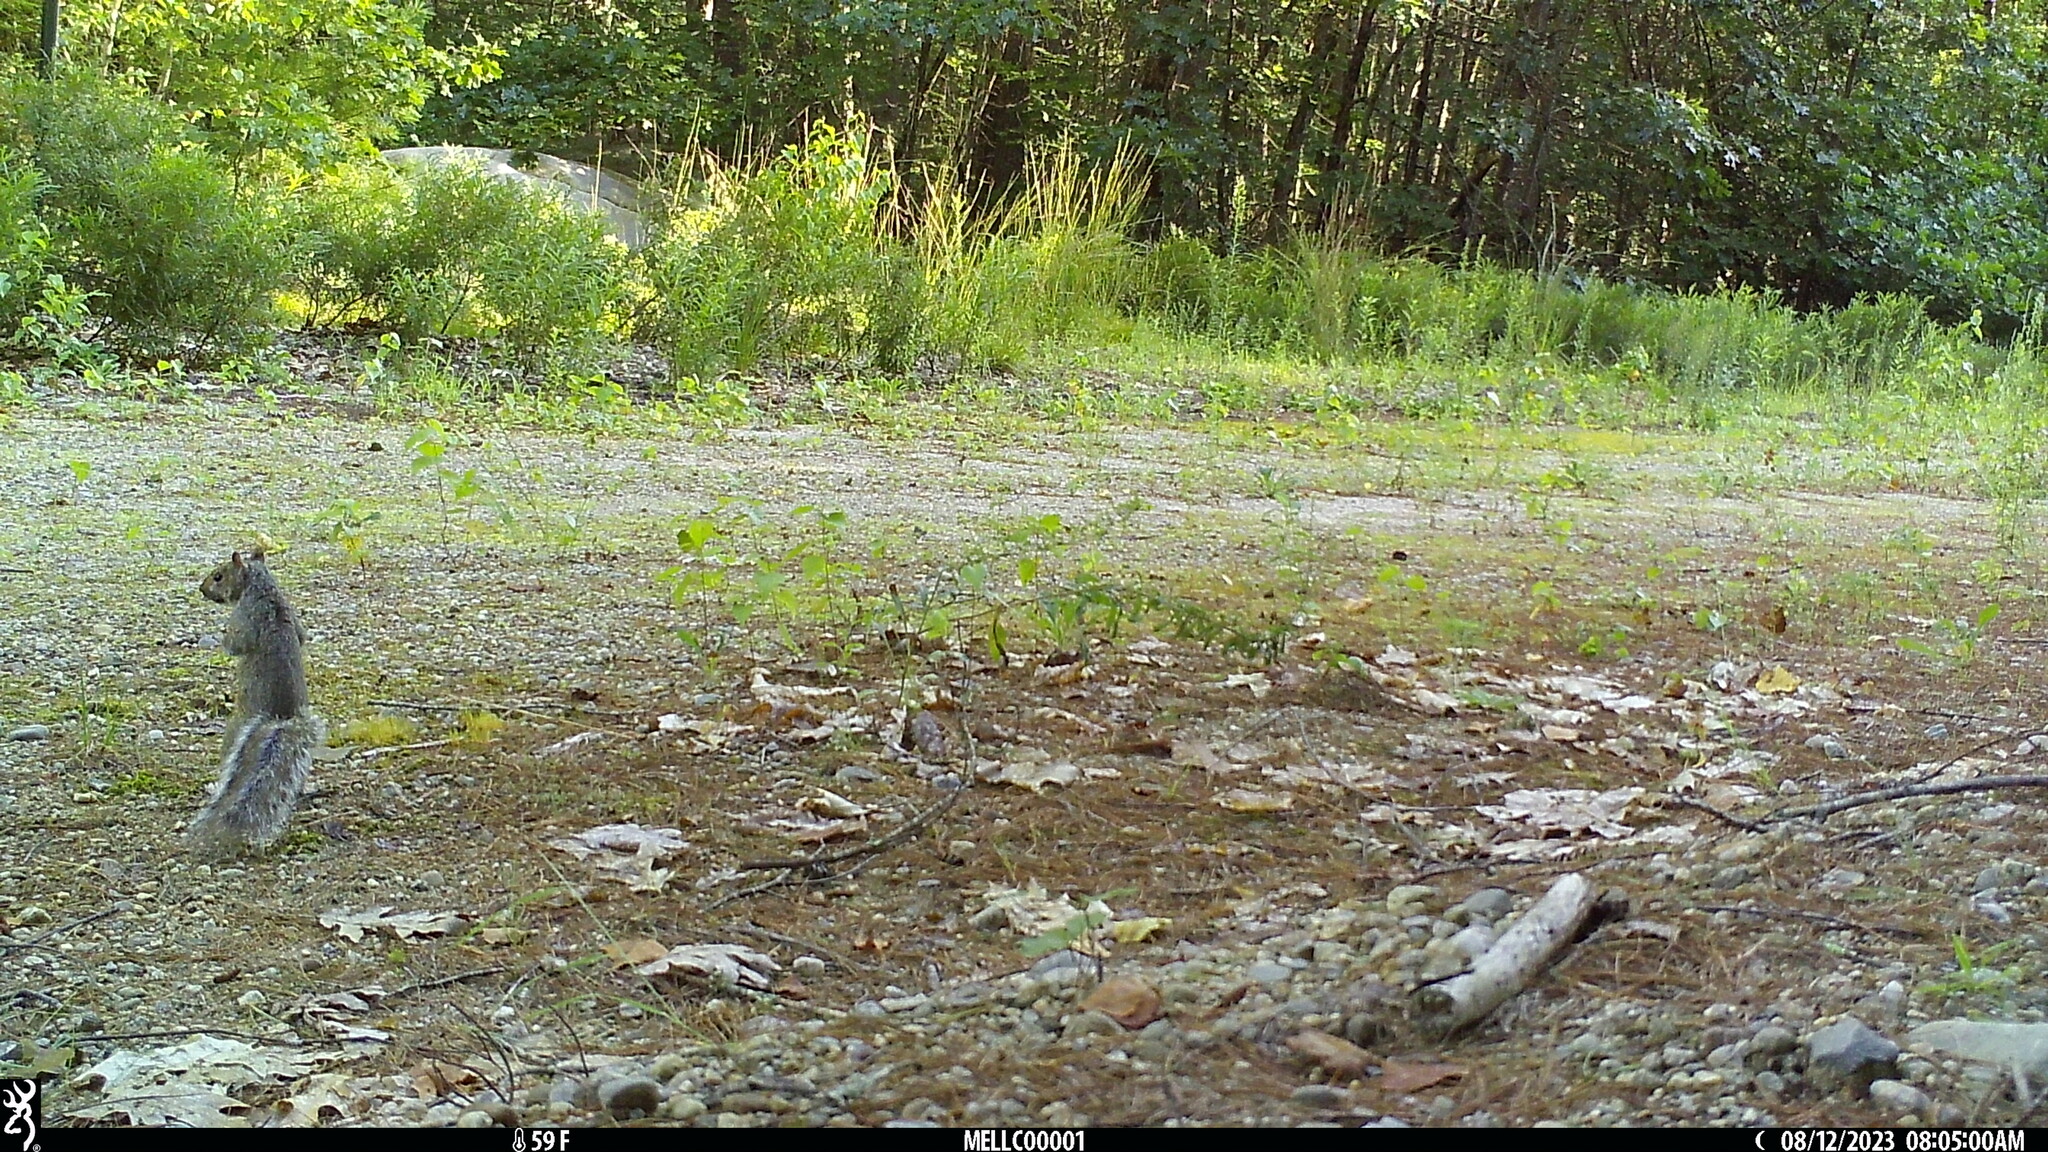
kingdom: Animalia
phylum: Chordata
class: Mammalia
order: Rodentia
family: Sciuridae
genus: Sciurus
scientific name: Sciurus carolinensis
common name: Eastern gray squirrel
